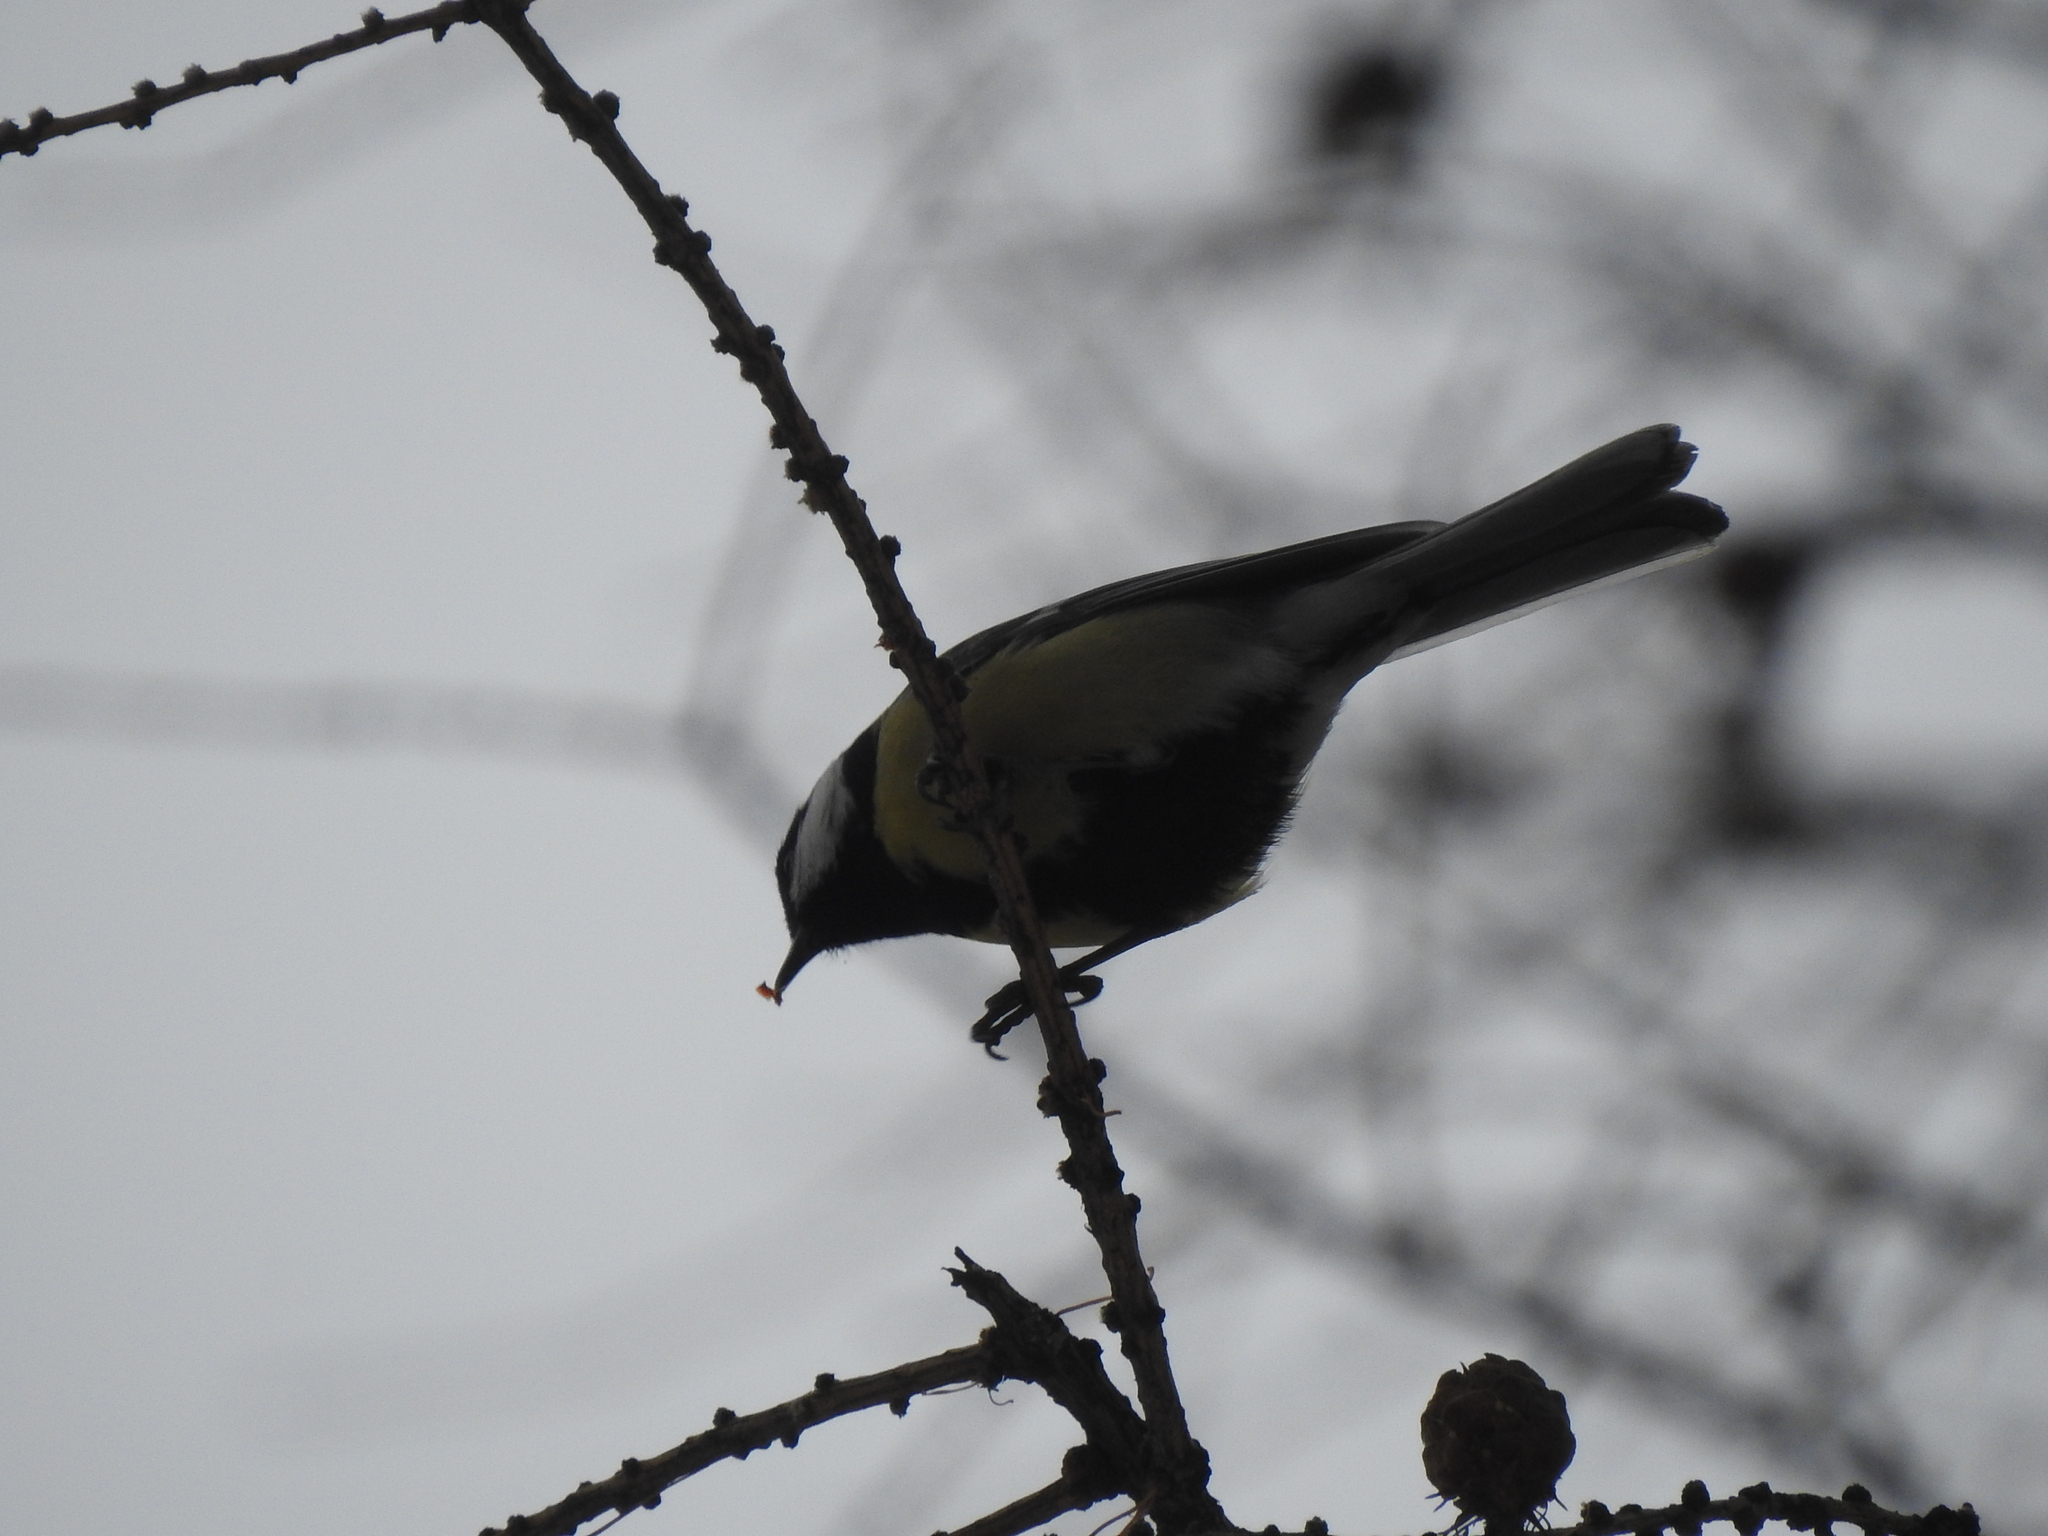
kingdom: Animalia
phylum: Chordata
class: Aves
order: Passeriformes
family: Paridae
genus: Parus
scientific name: Parus major
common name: Great tit
